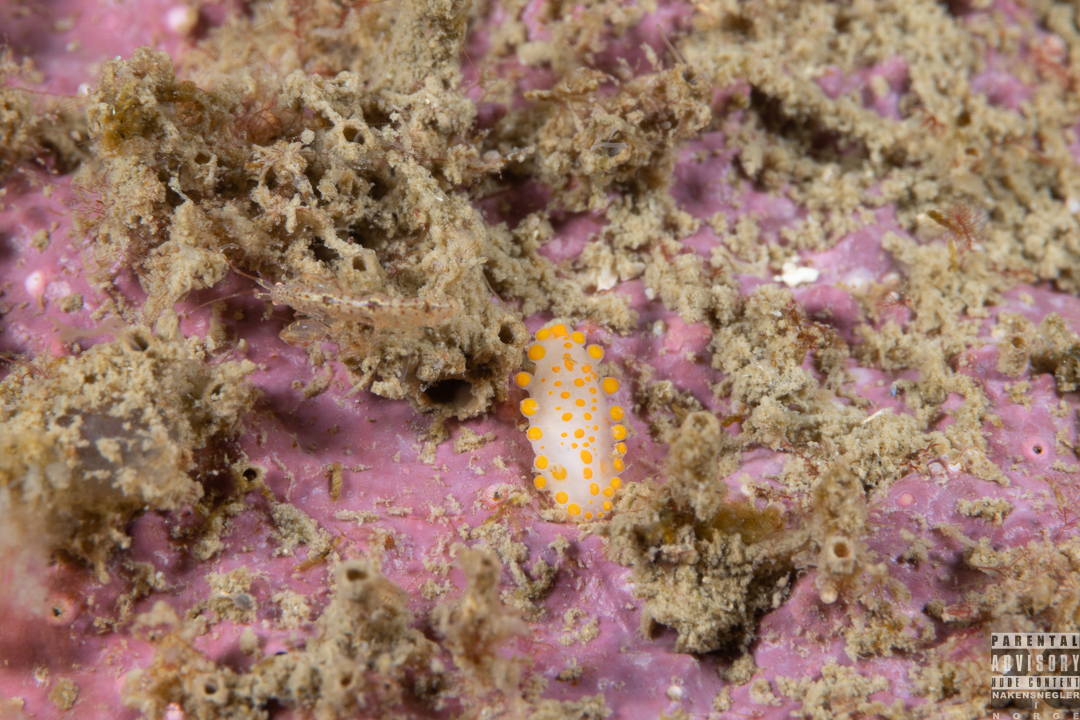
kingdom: Animalia
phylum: Mollusca
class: Gastropoda
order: Nudibranchia
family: Polyceridae
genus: Limacia
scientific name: Limacia clavigera
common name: Orange-clubbed sea slug
